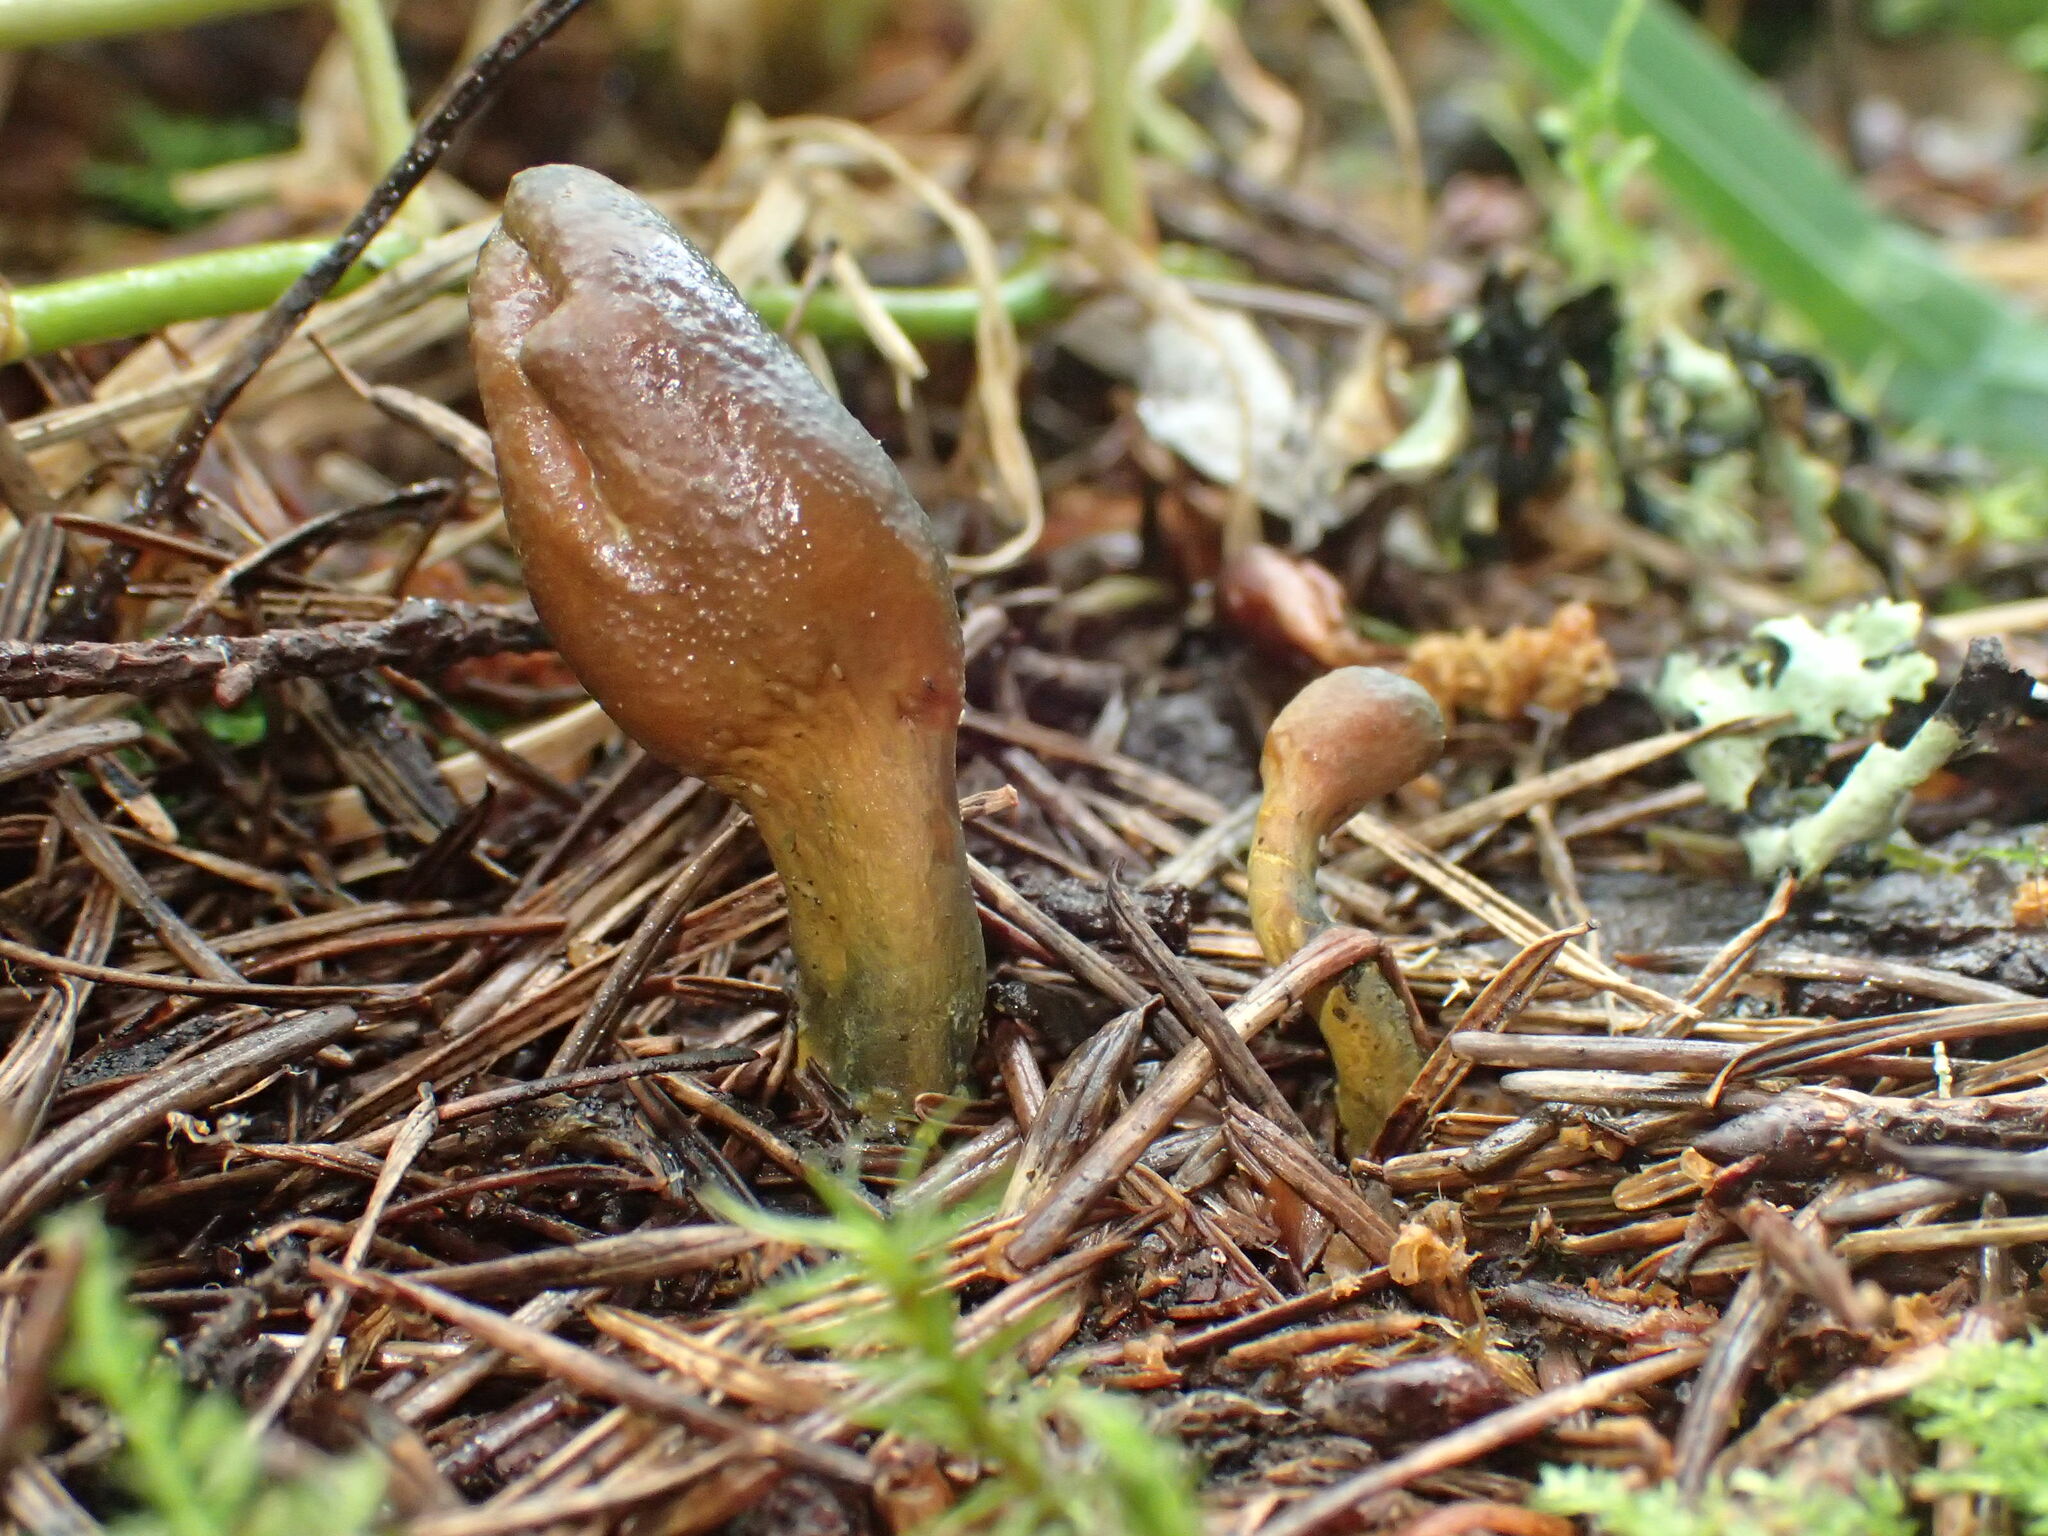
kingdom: Fungi
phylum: Ascomycota
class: Sordariomycetes
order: Hypocreales
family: Ophiocordycipitaceae
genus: Tolypocladium
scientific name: Tolypocladium ophioglossoides
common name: Snaketongue truffleclub
